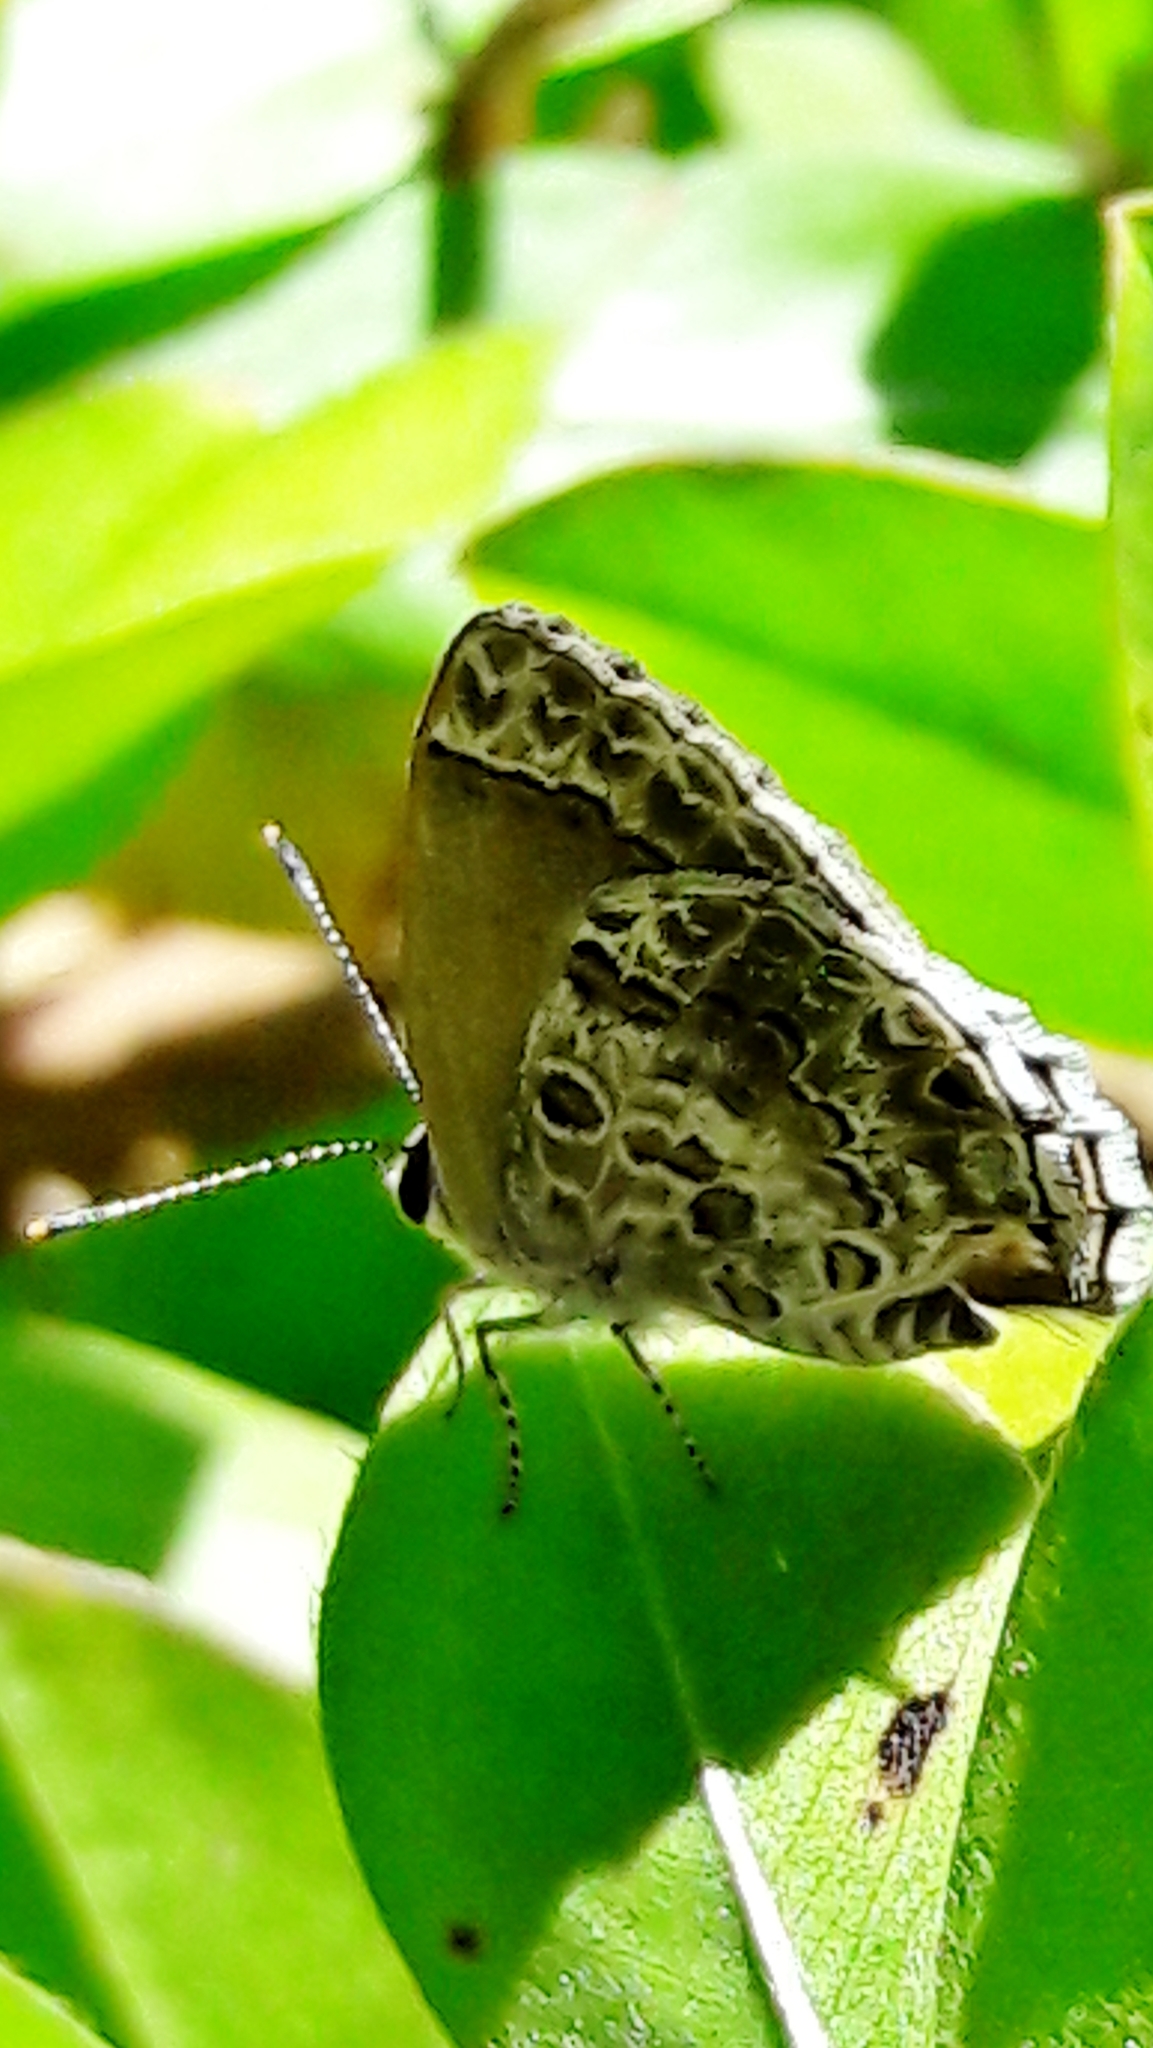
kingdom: Animalia
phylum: Arthropoda
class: Insecta
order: Lepidoptera
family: Lycaenidae
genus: Thecla
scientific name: Thecla cestri
